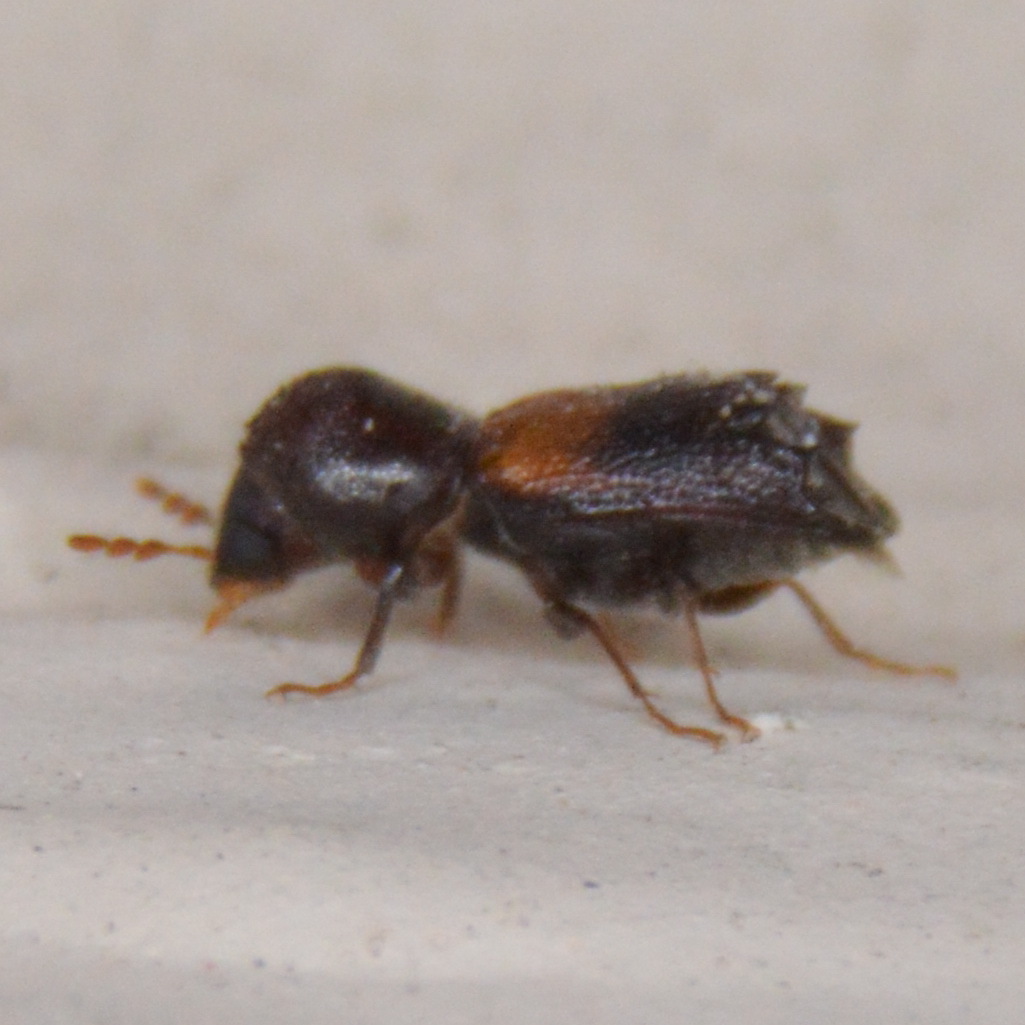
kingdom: Animalia
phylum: Arthropoda
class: Insecta
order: Coleoptera
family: Bostrichidae
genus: Xylobiops
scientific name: Xylobiops basilaris
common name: Red-shouldered bostrichid
